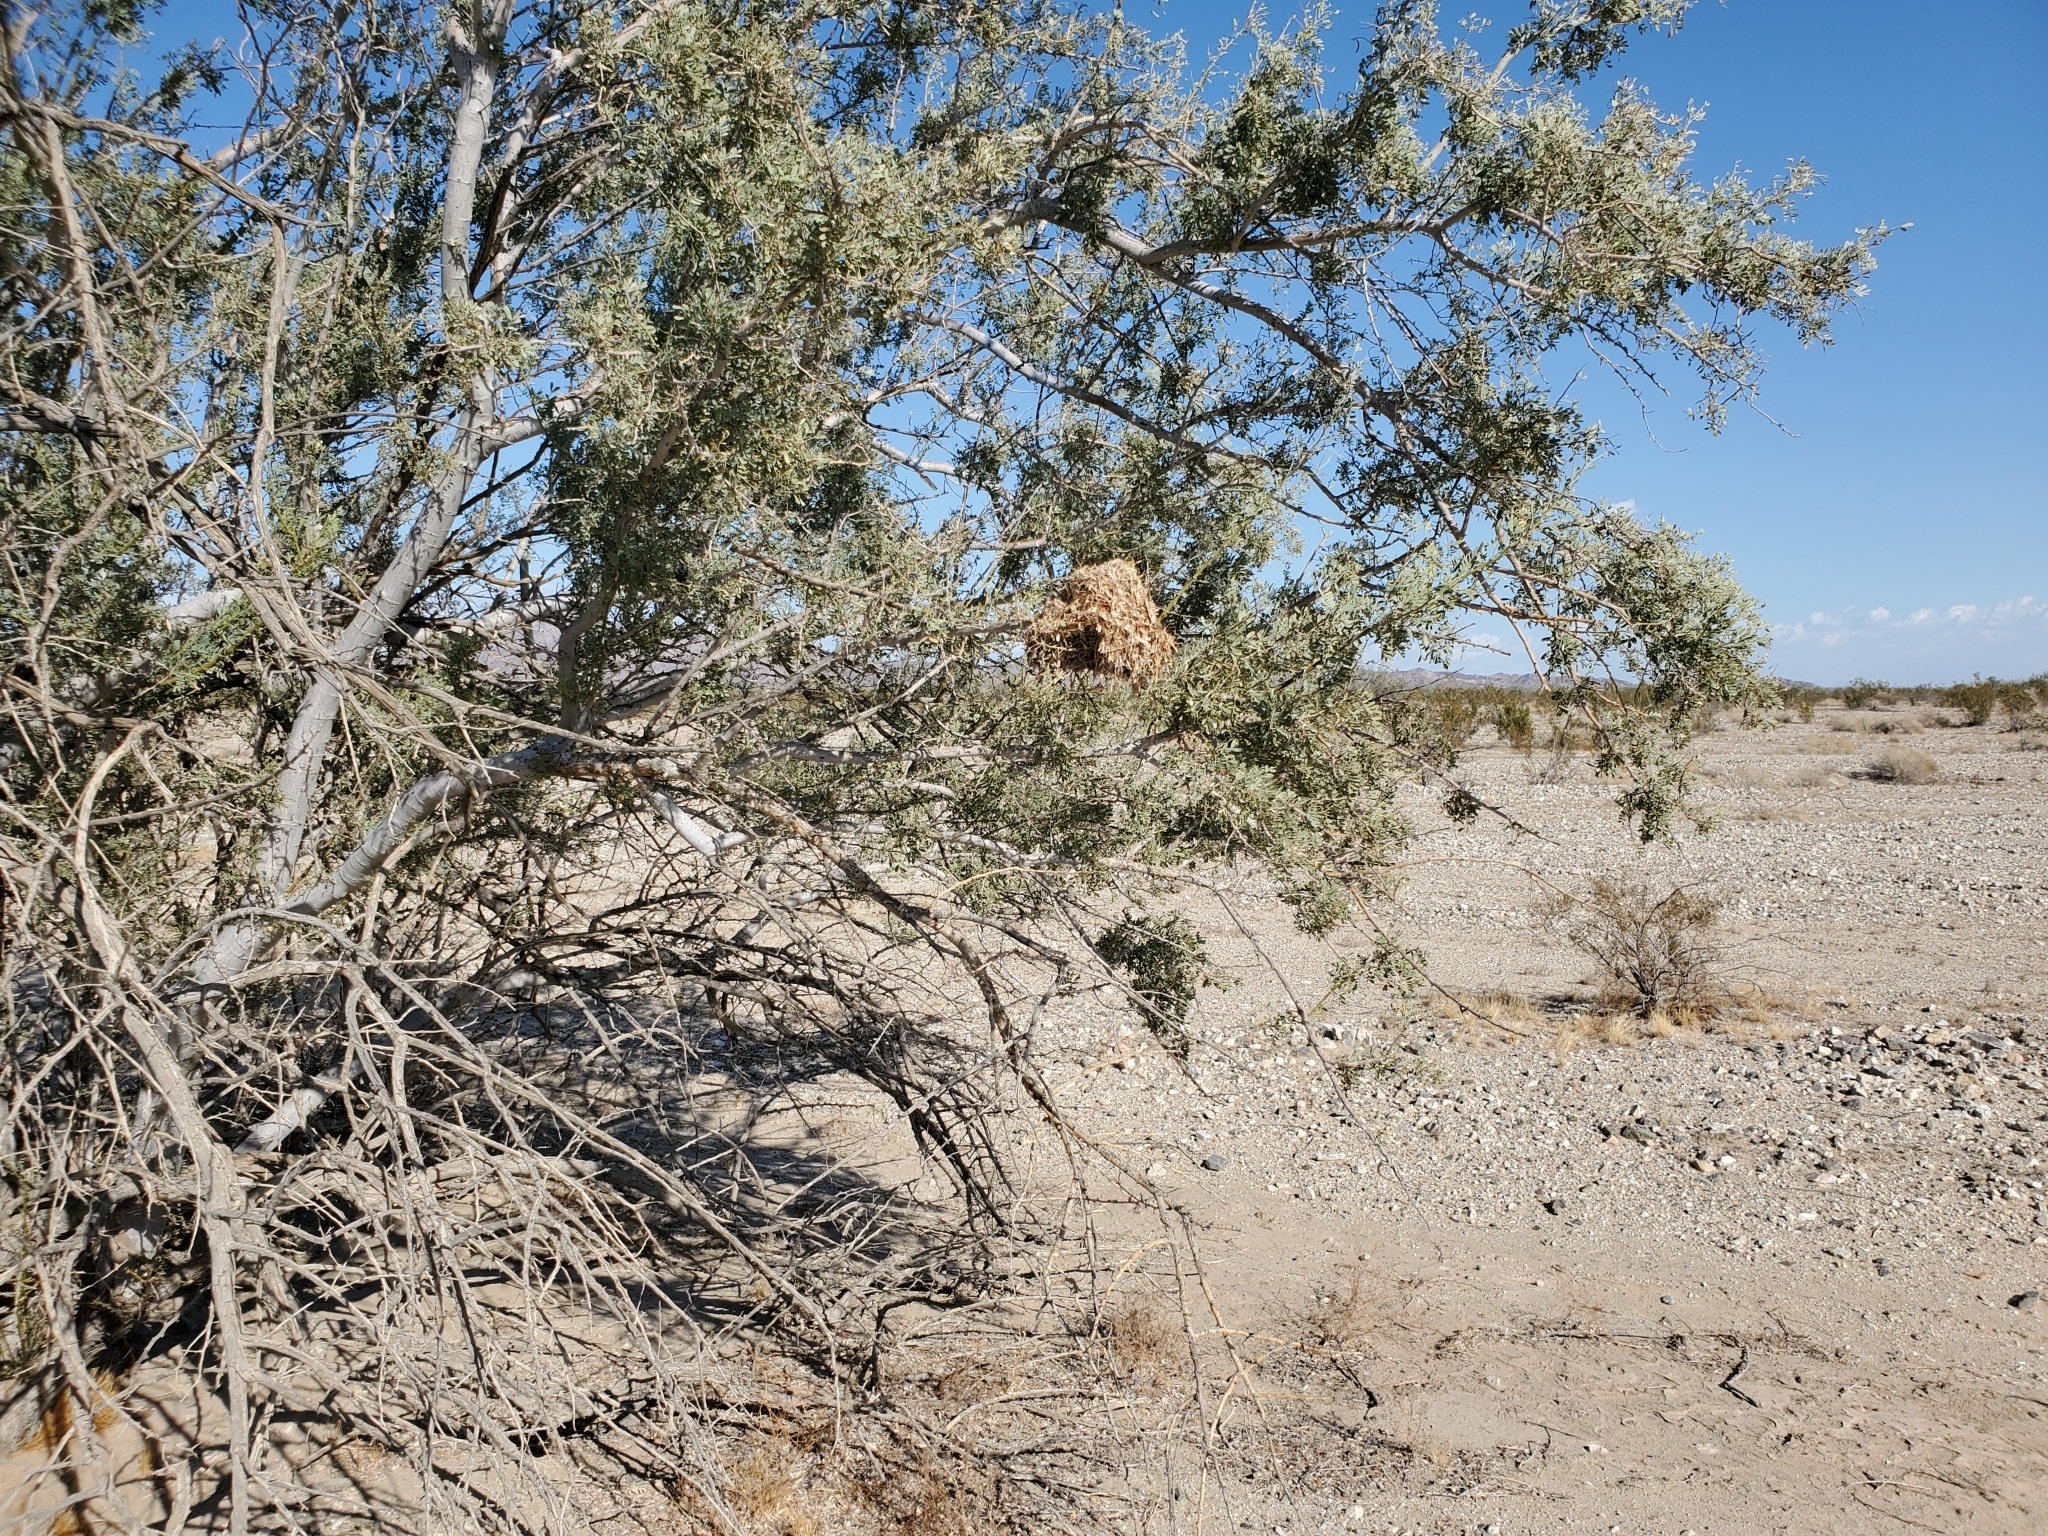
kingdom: Animalia
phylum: Chordata
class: Aves
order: Passeriformes
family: Remizidae
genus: Auriparus
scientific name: Auriparus flaviceps
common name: Verdin
